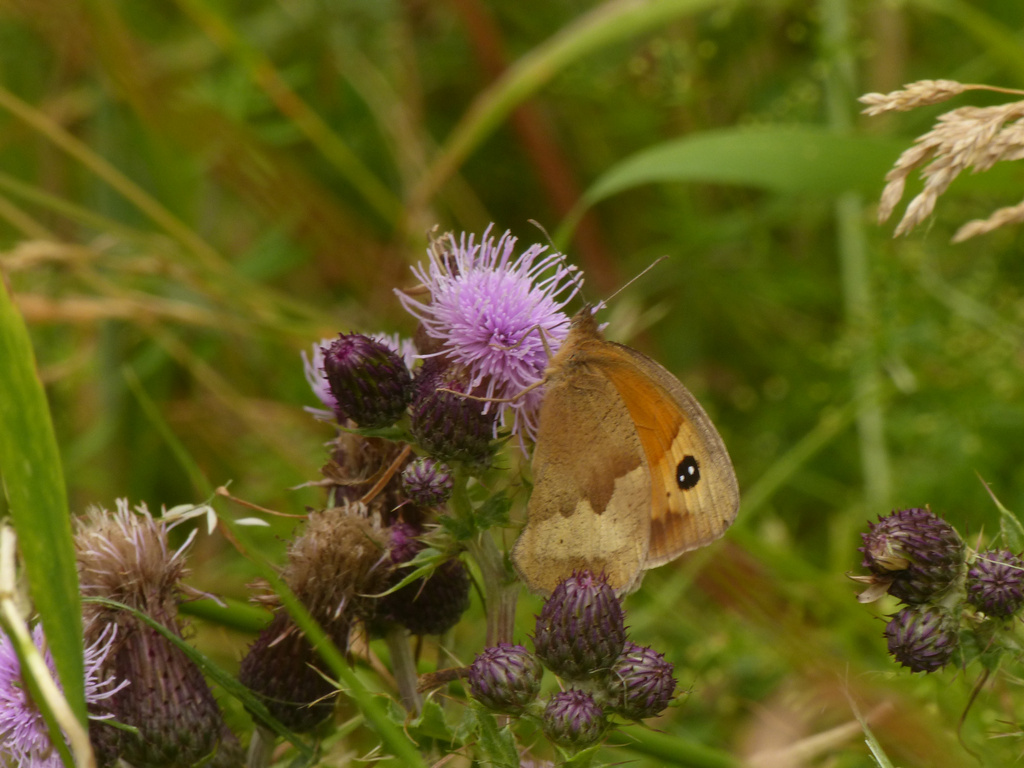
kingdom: Animalia
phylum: Arthropoda
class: Insecta
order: Lepidoptera
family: Nymphalidae
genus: Maniola
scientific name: Maniola jurtina
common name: Meadow brown
